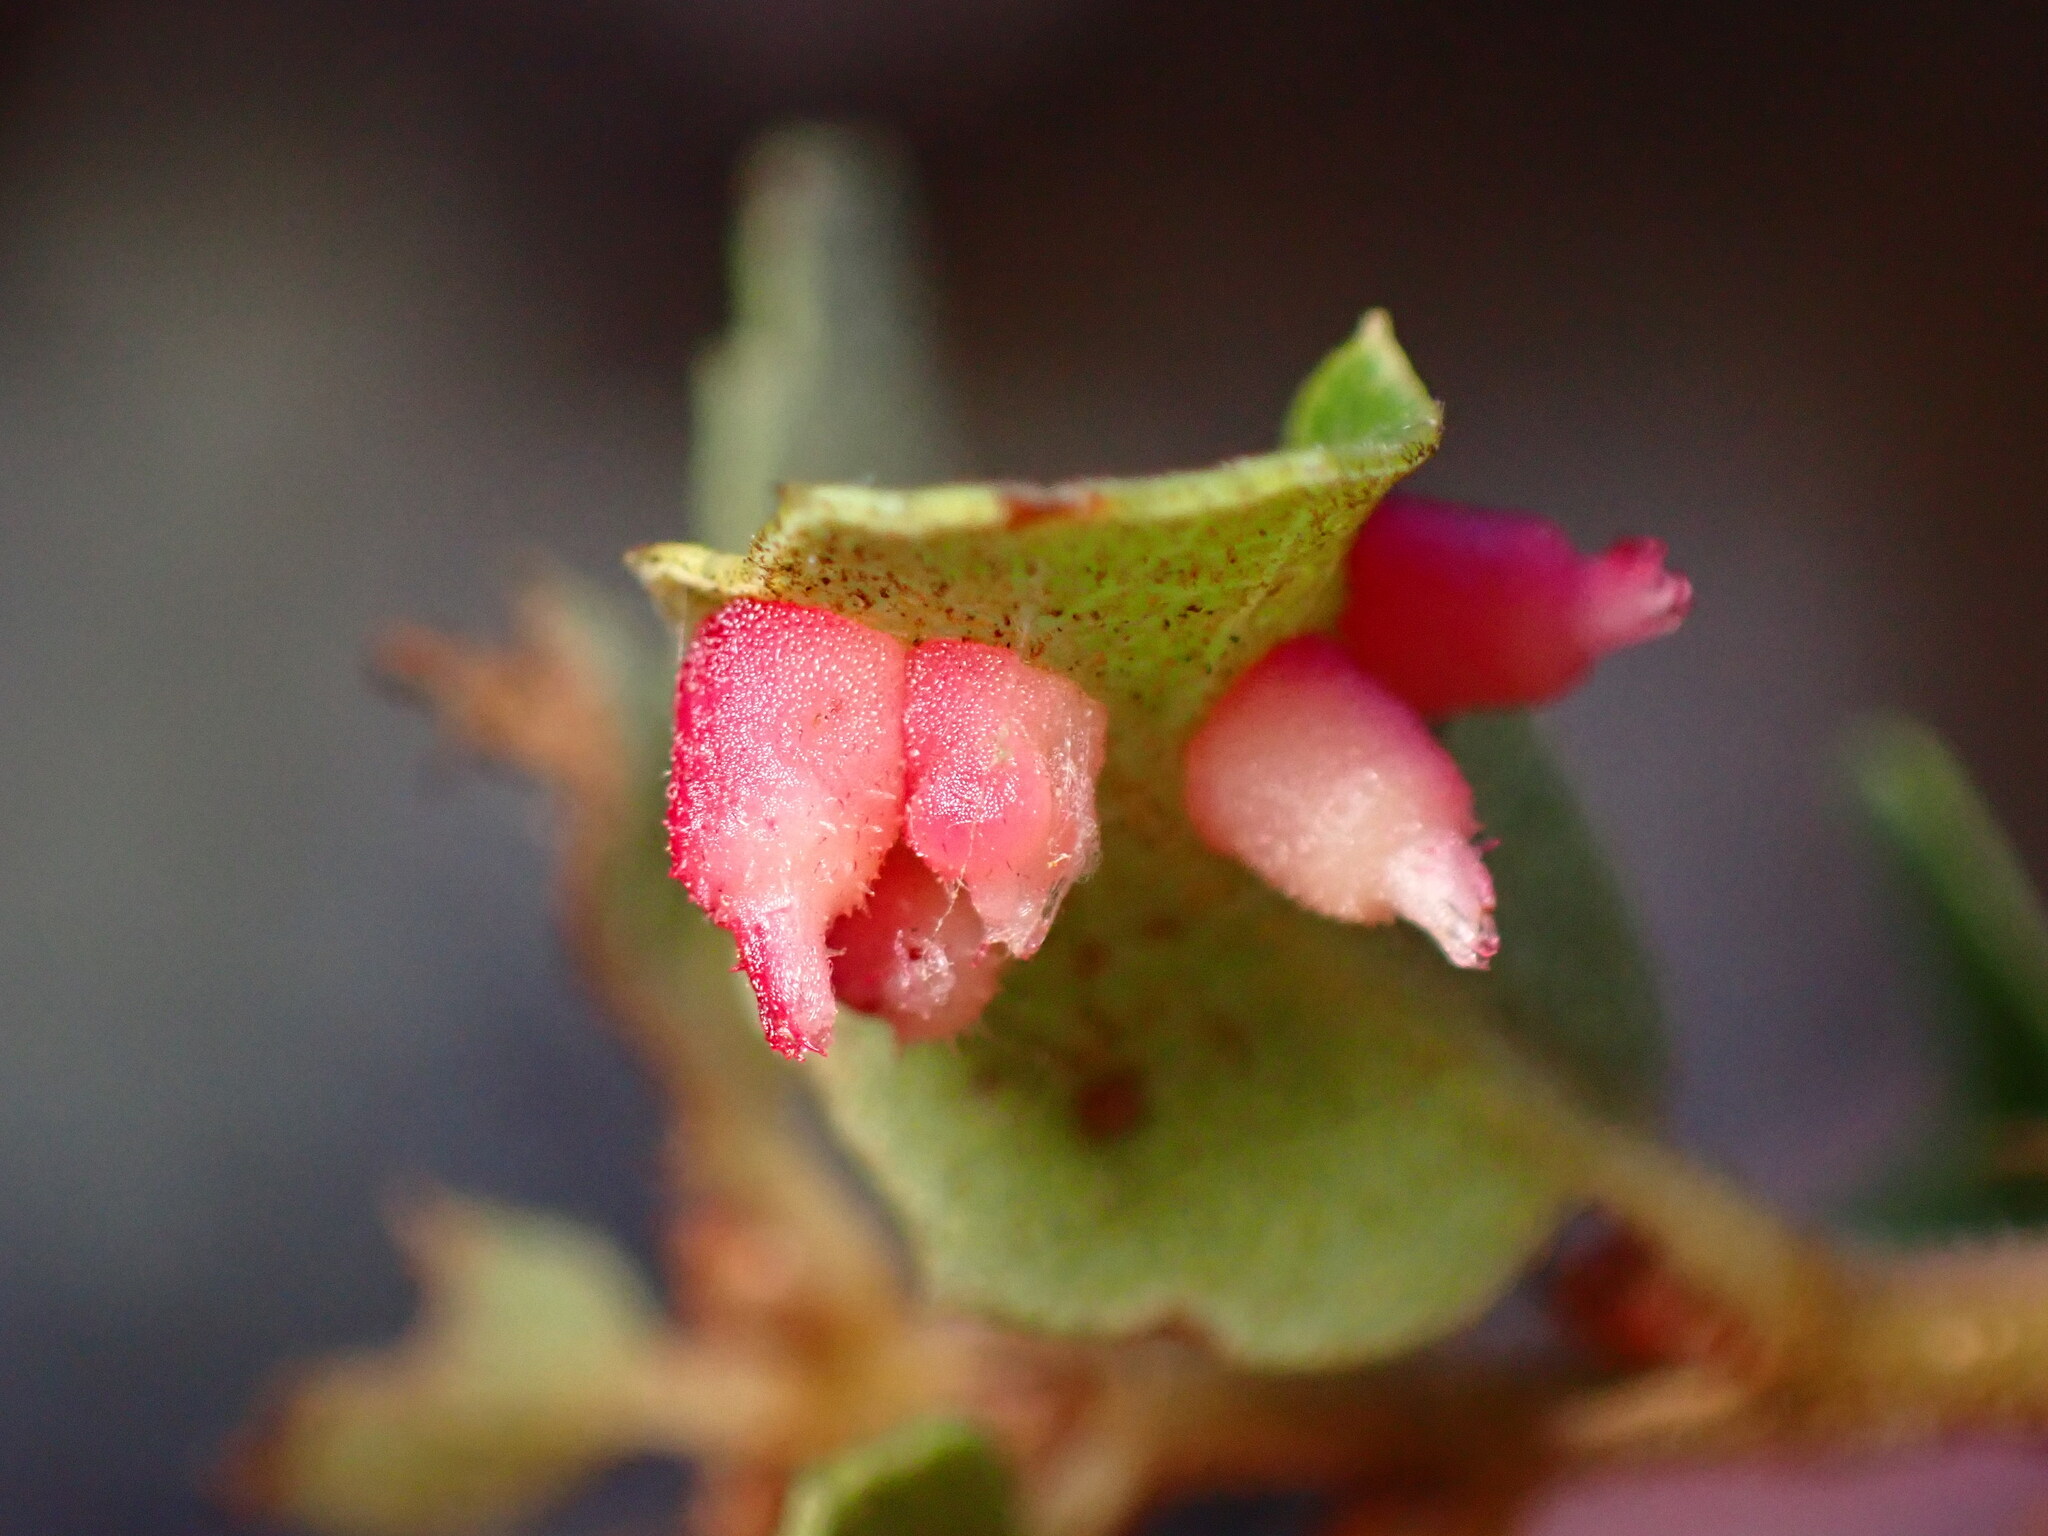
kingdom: Animalia
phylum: Arthropoda
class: Insecta
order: Hymenoptera
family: Cynipidae
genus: Andricus
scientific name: Andricus
